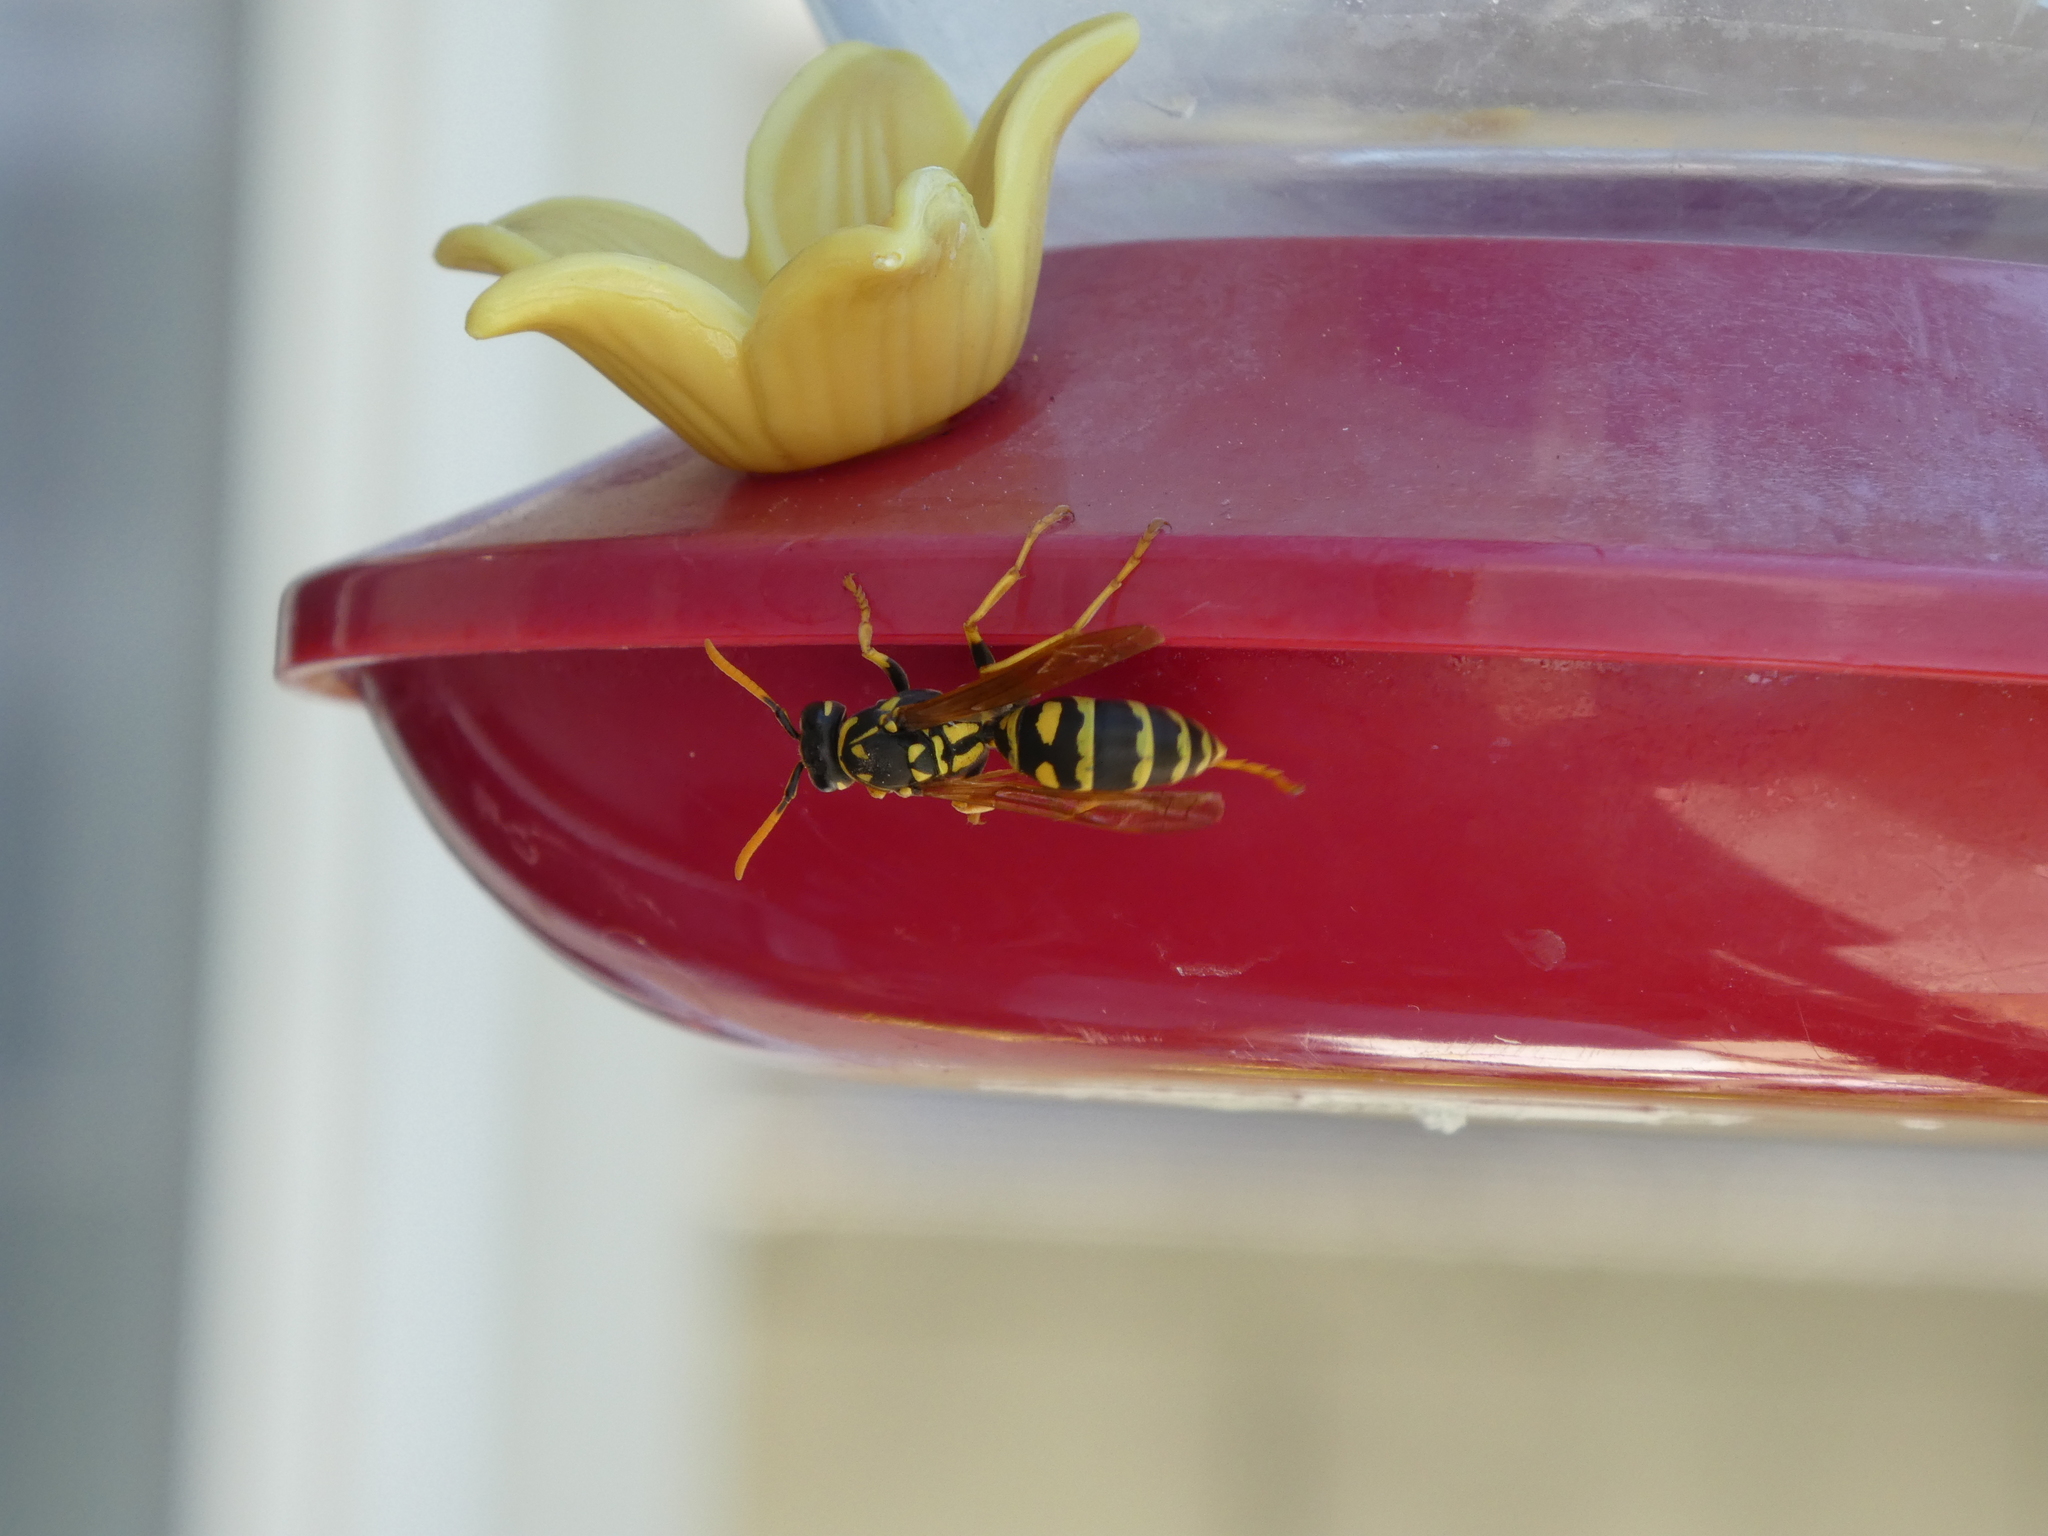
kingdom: Animalia
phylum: Arthropoda
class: Insecta
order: Hymenoptera
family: Eumenidae
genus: Polistes
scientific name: Polistes dominula
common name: Paper wasp
